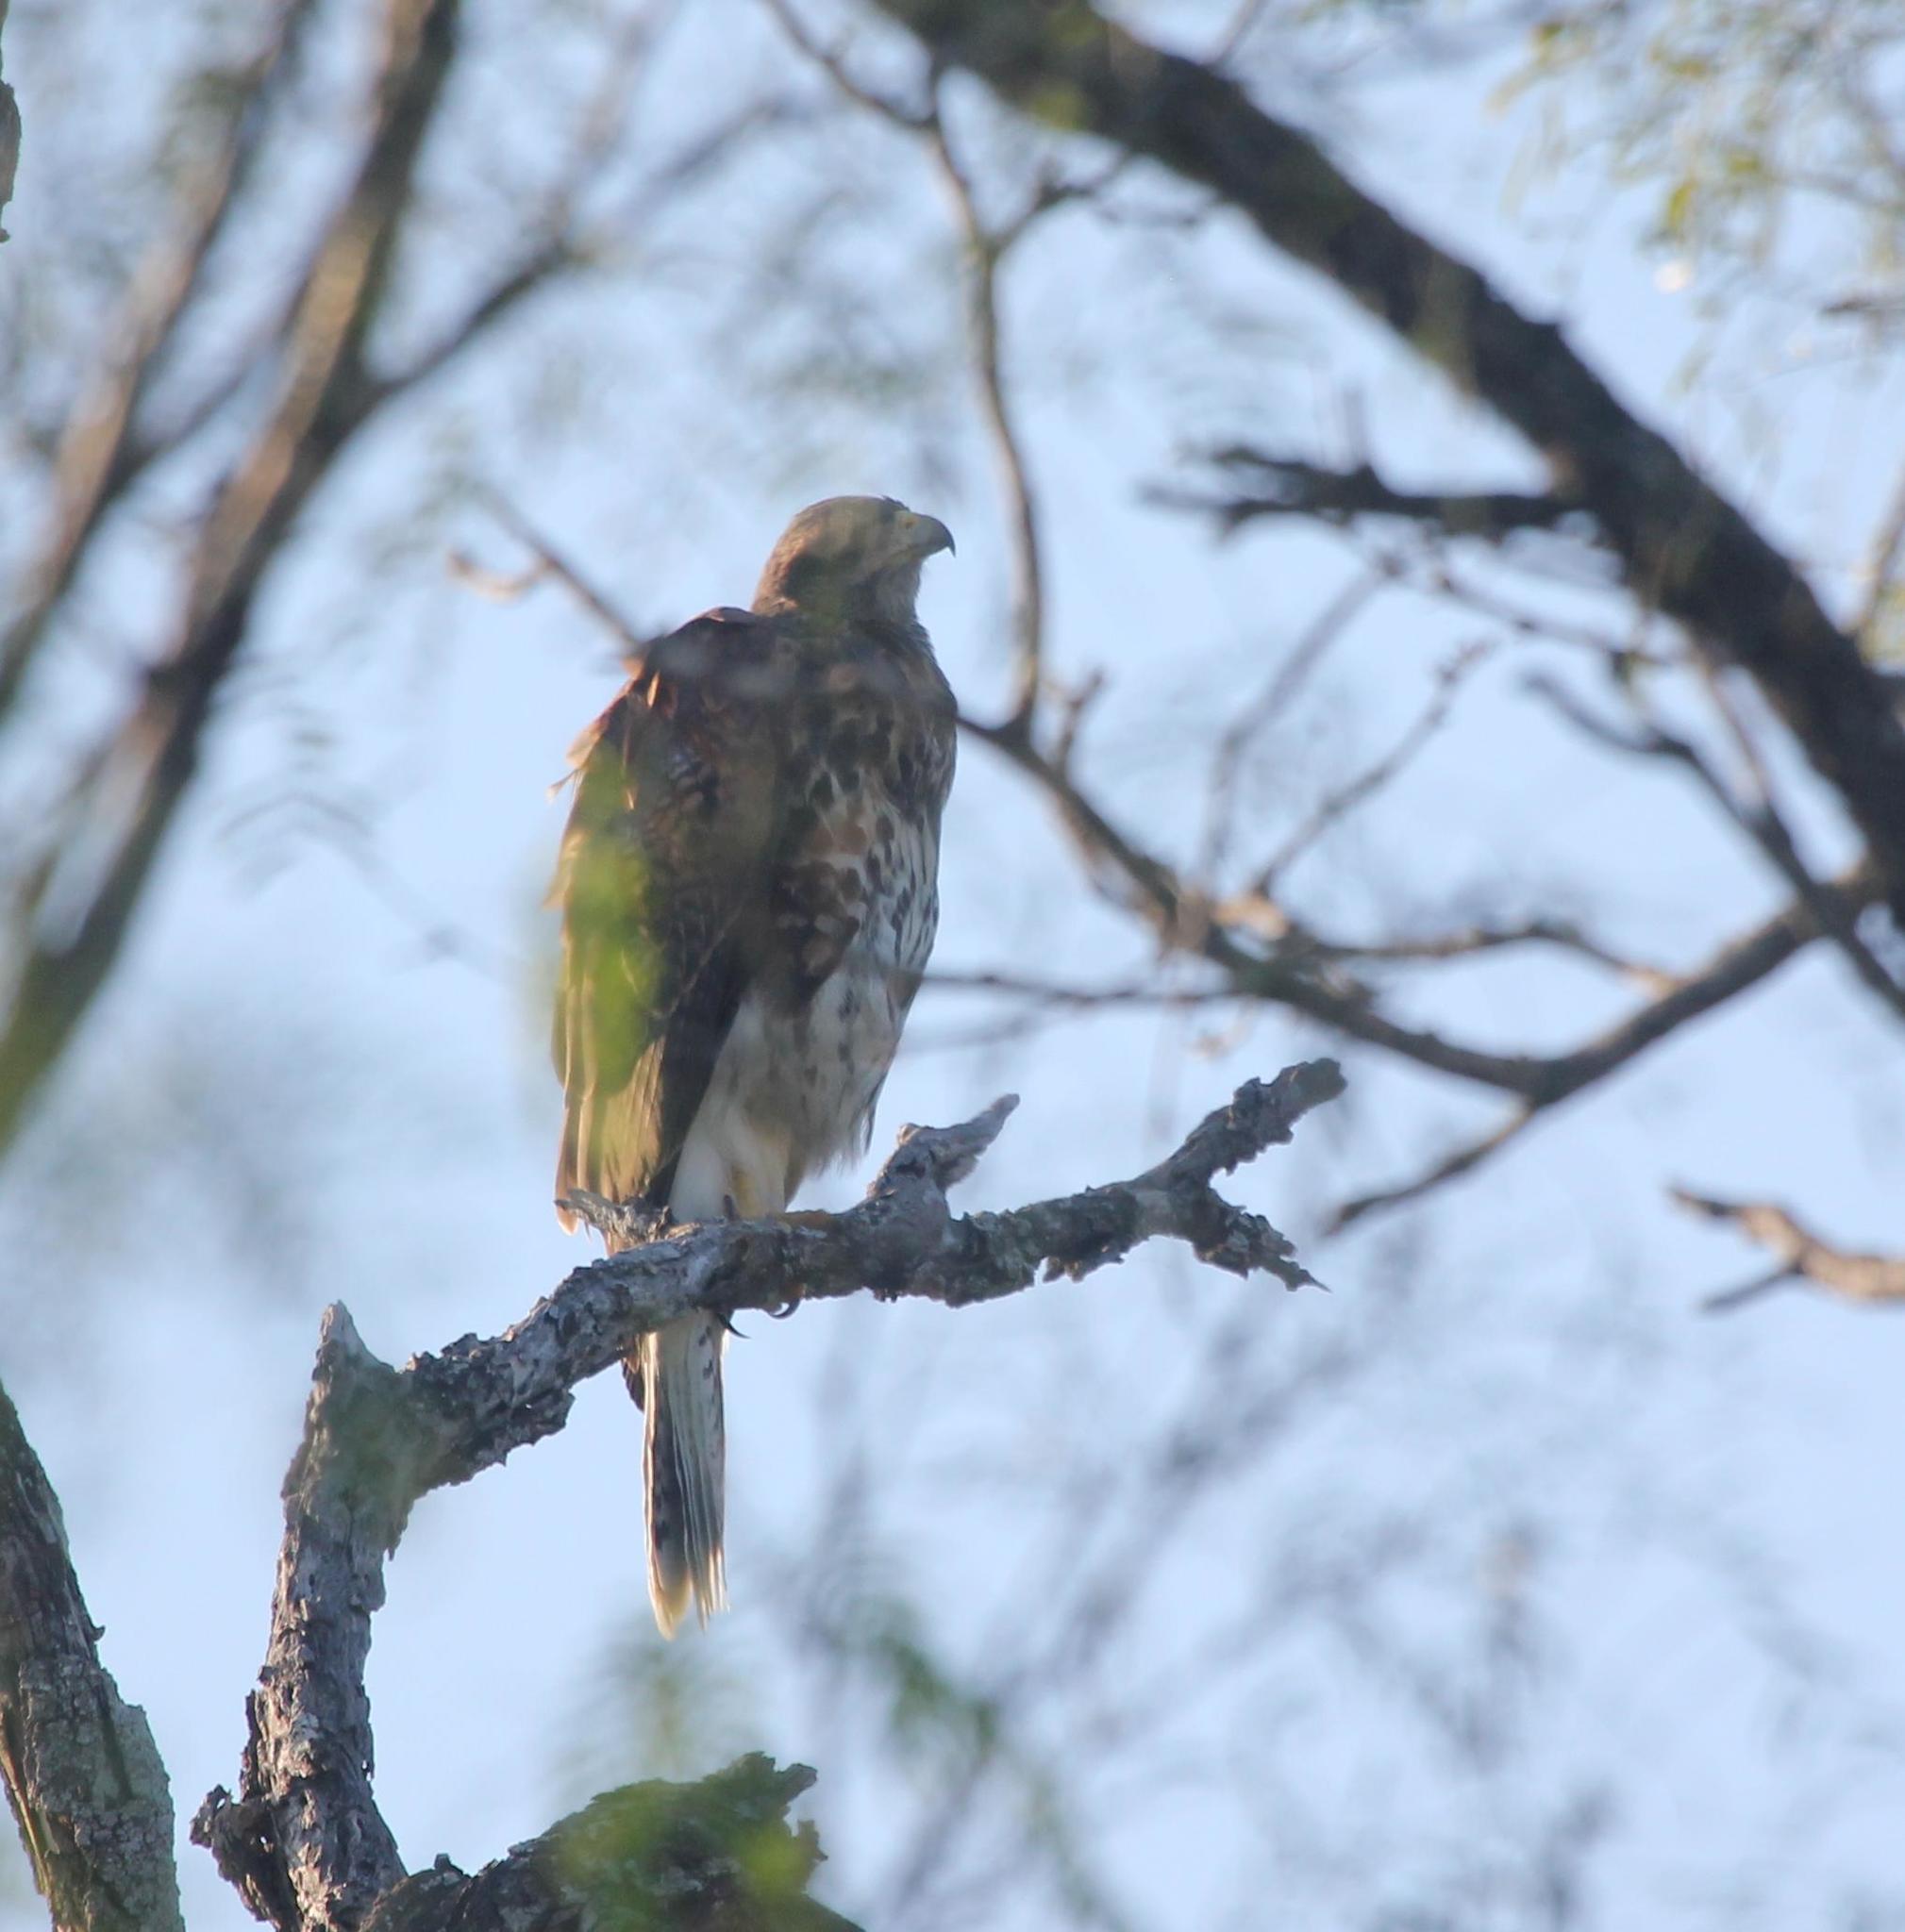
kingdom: Animalia
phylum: Chordata
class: Aves
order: Accipitriformes
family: Accipitridae
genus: Parabuteo
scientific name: Parabuteo unicinctus
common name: Harris's hawk
